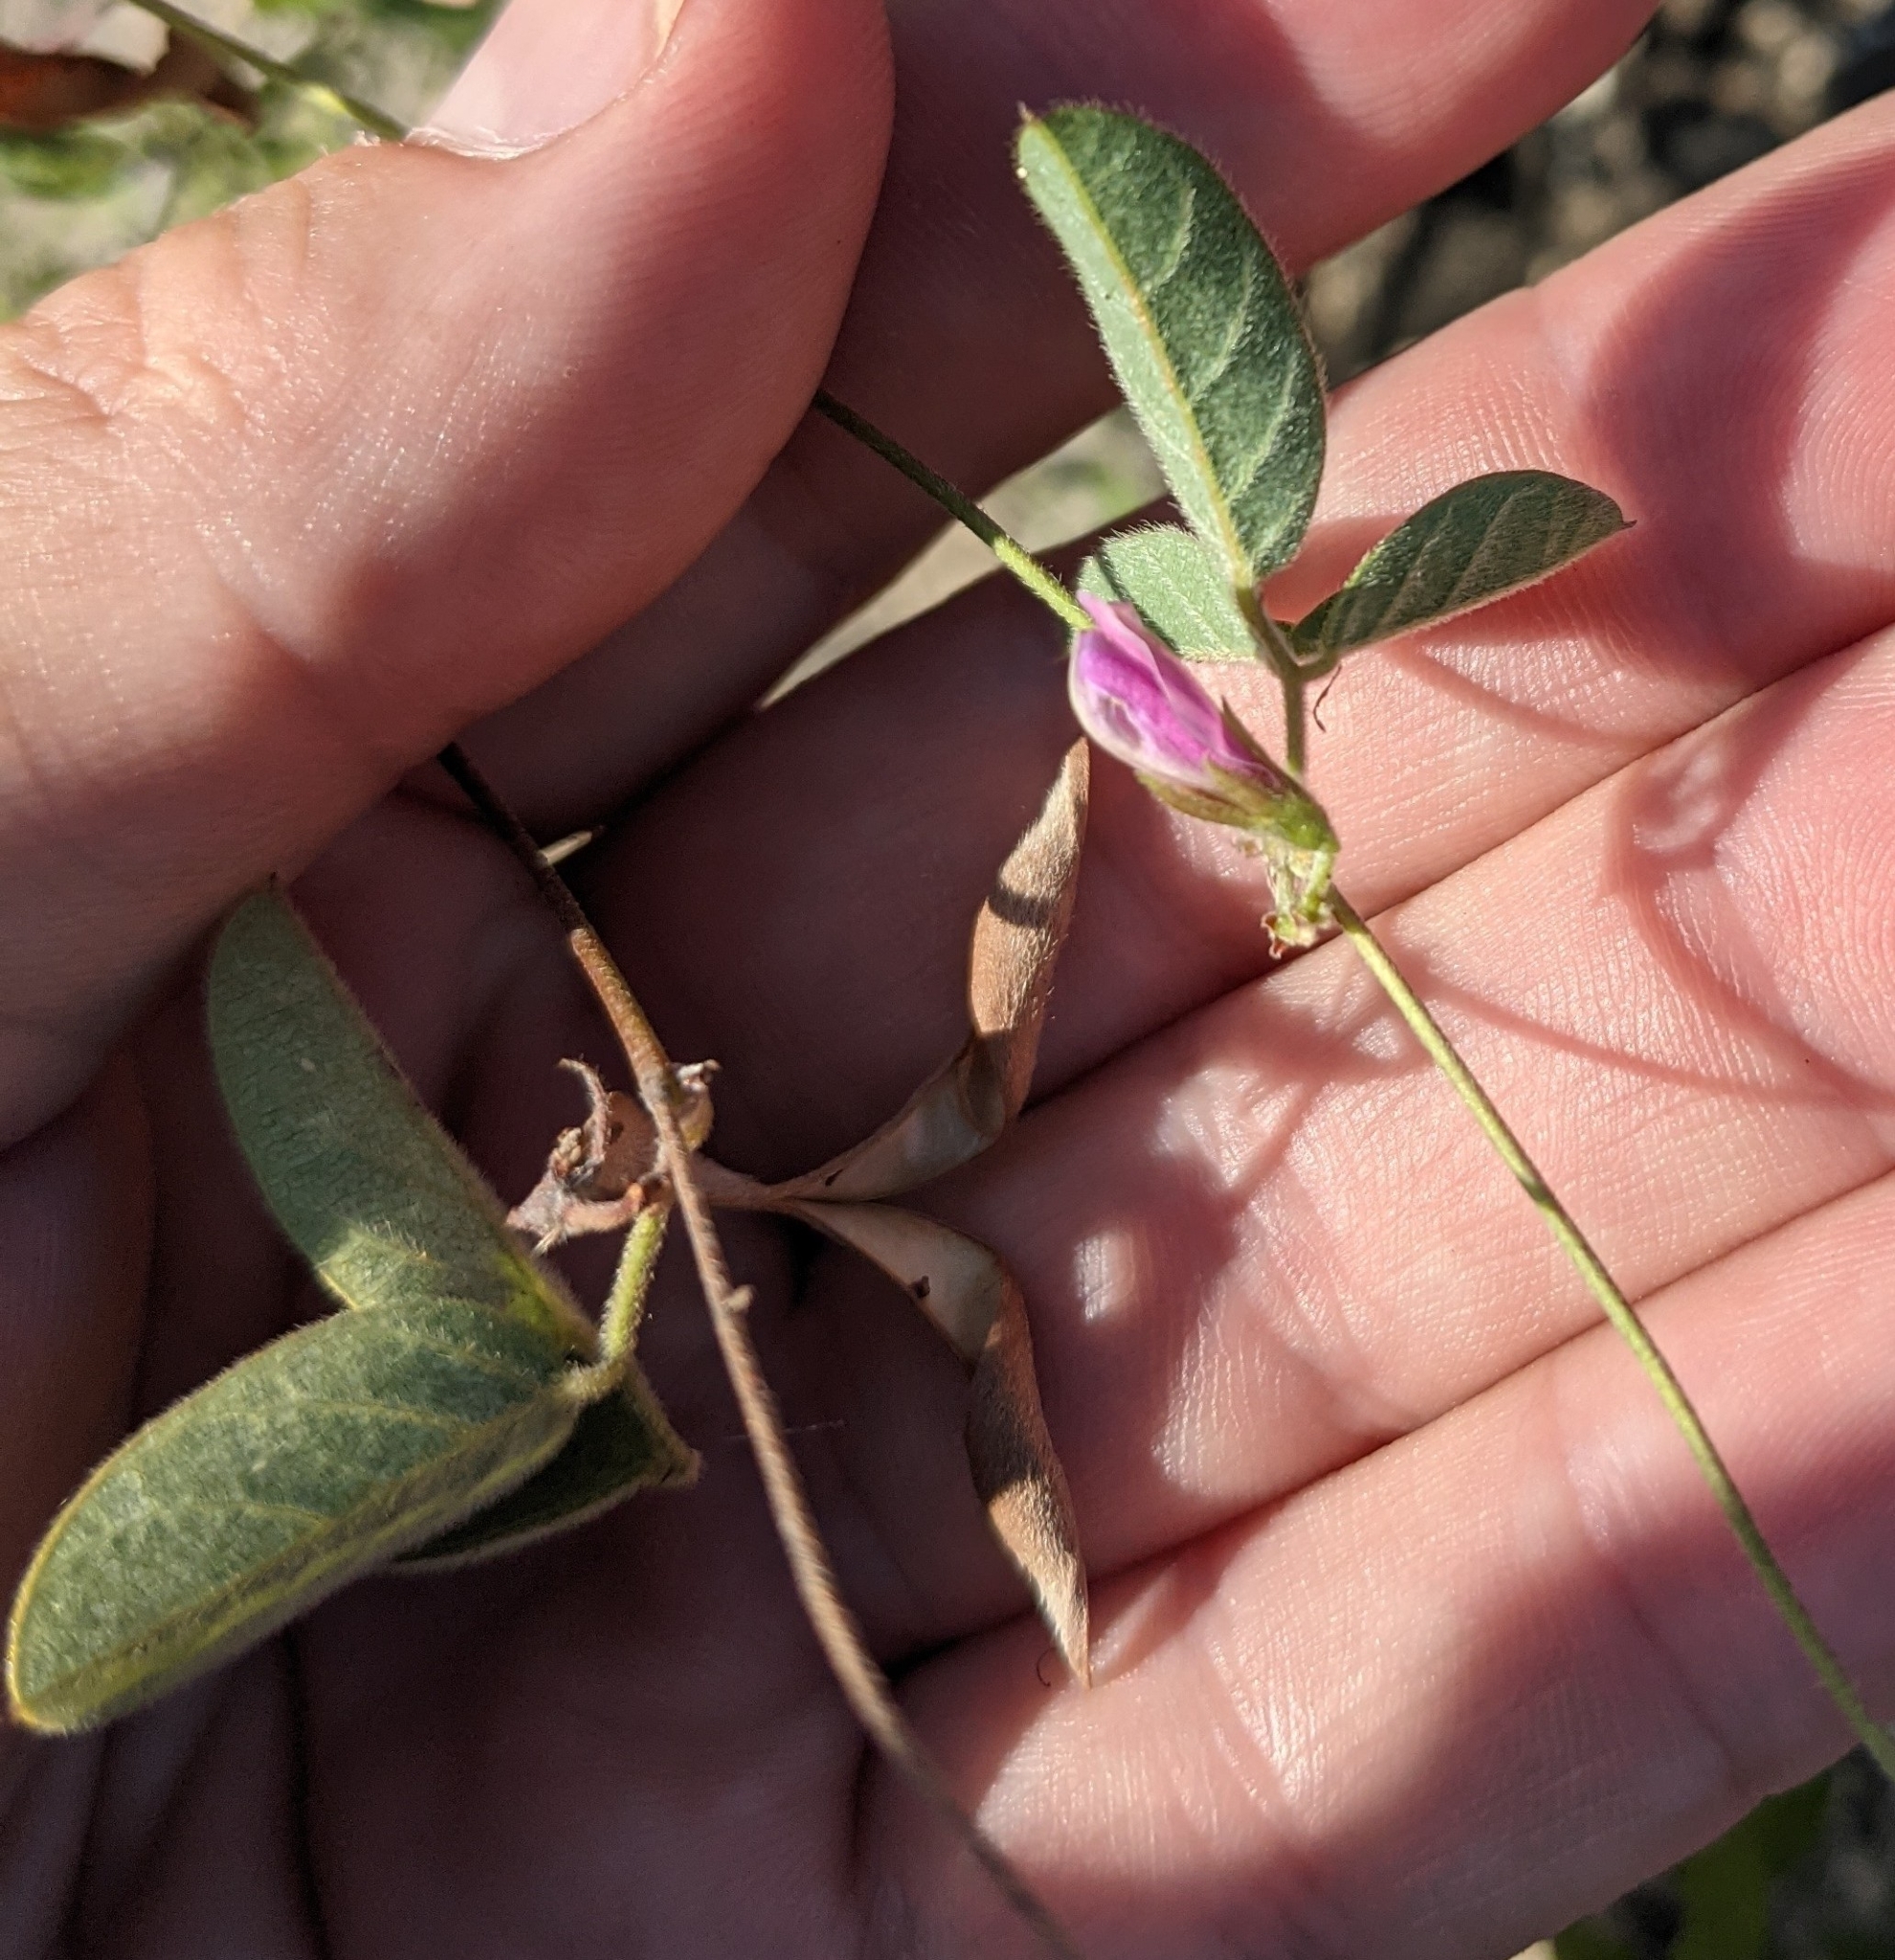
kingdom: Plantae
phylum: Tracheophyta
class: Magnoliopsida
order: Fabales
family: Fabaceae
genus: Galactia
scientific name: Galactia texana
